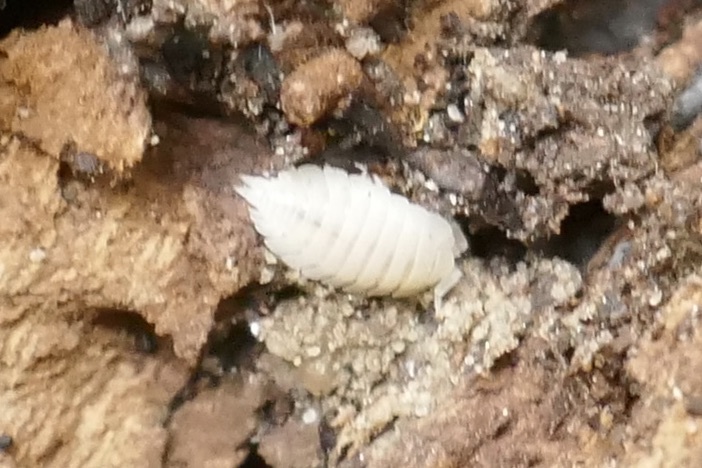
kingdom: Animalia
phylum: Arthropoda
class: Malacostraca
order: Isopoda
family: Platyarthridae
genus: Platyarthrus
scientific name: Platyarthrus hoffmannseggii
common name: Ant woodlouse
